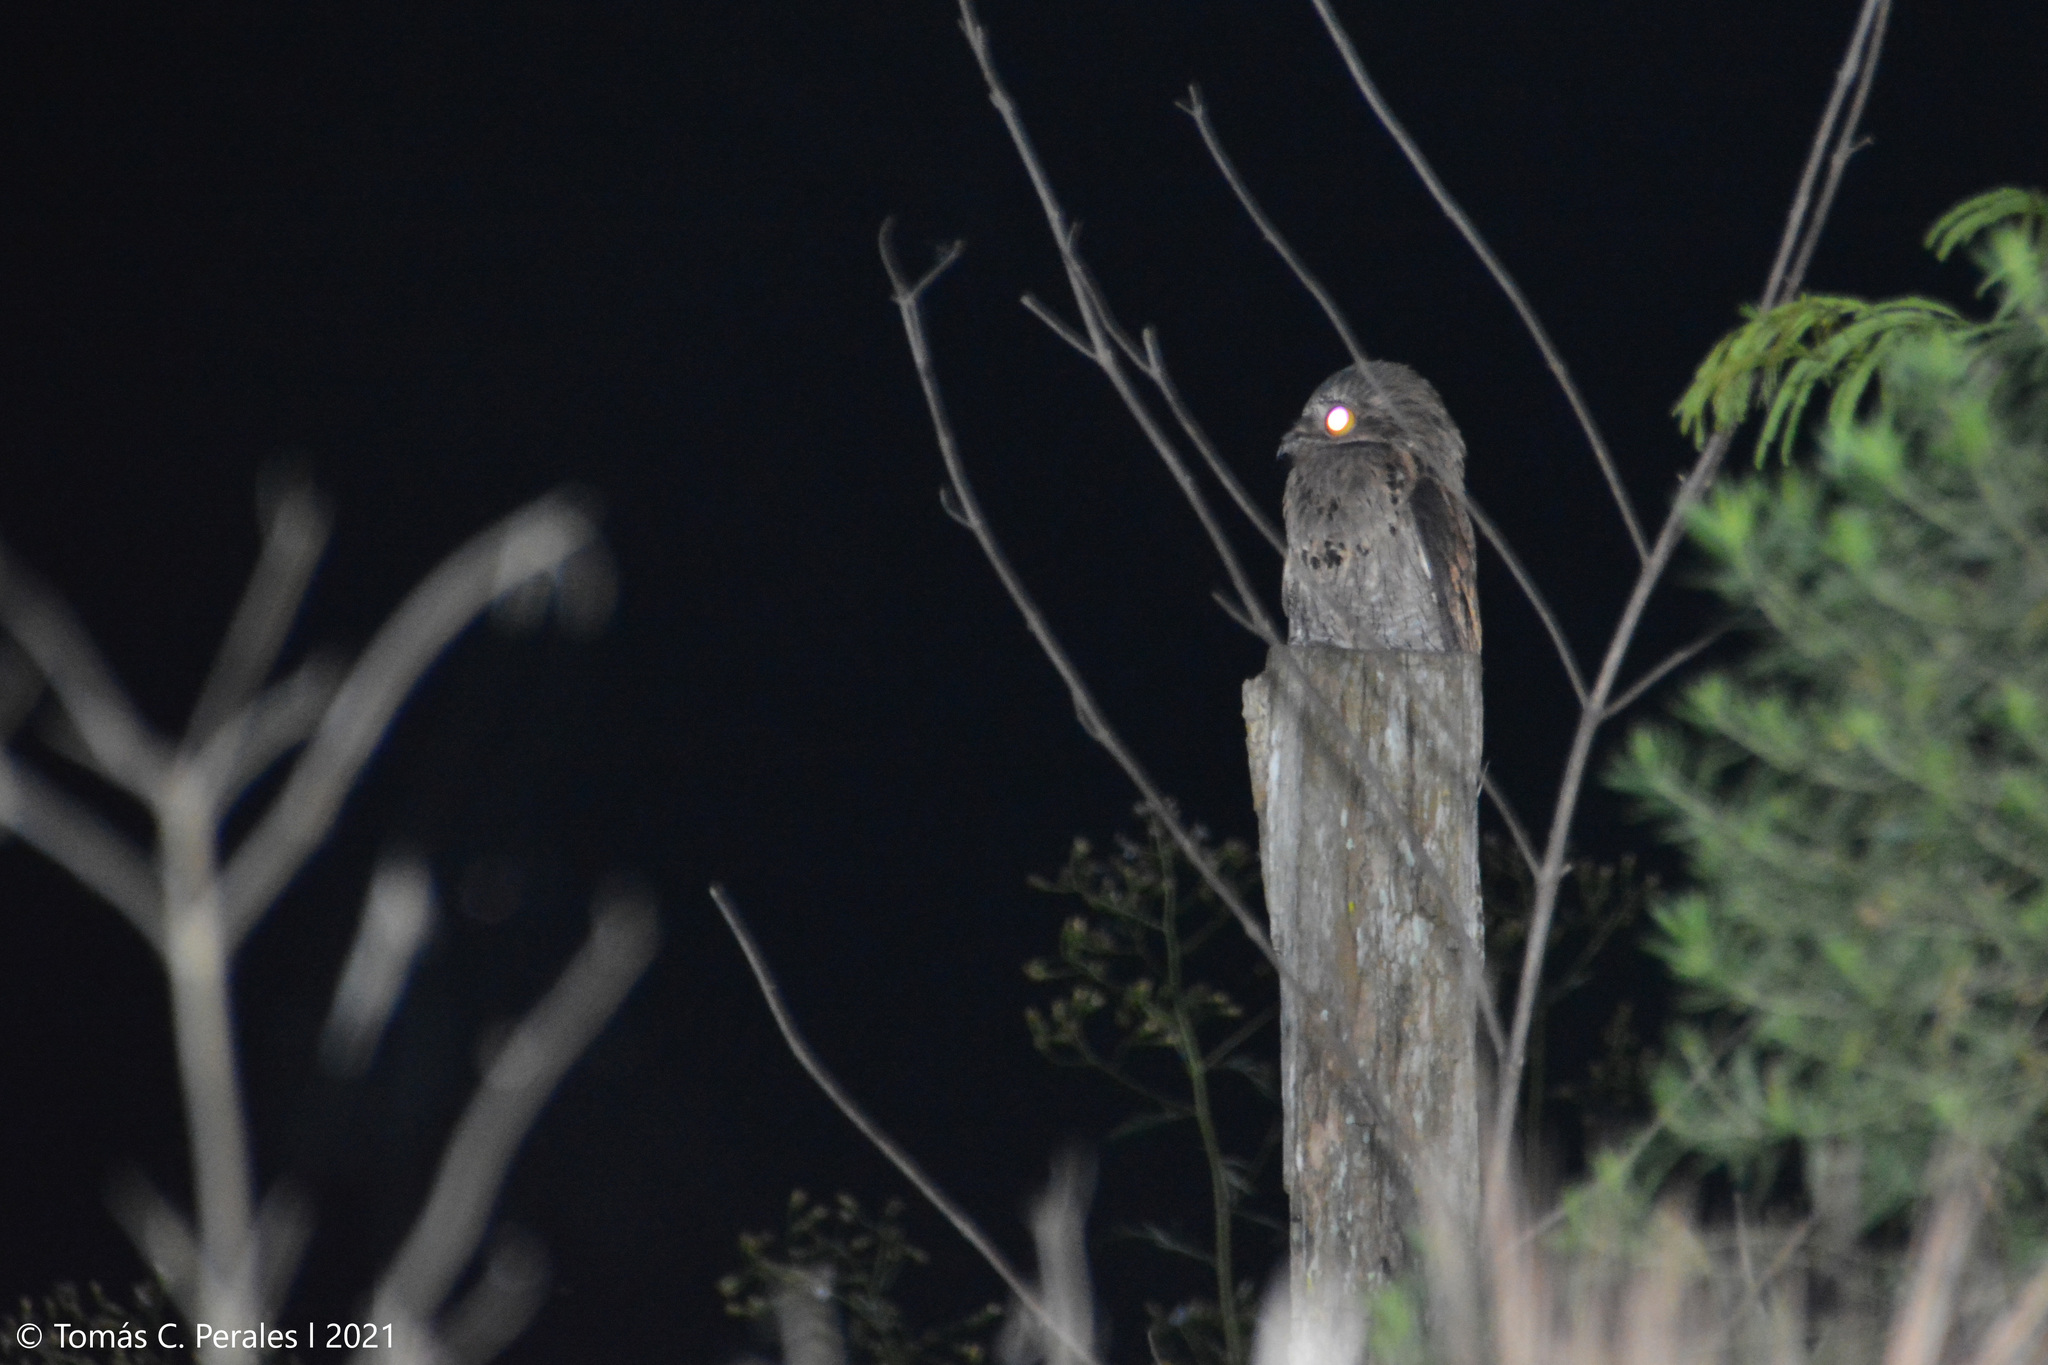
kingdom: Animalia
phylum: Chordata
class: Aves
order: Nyctibiiformes
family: Nyctibiidae
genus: Nyctibius
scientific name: Nyctibius griseus
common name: Common potoo
